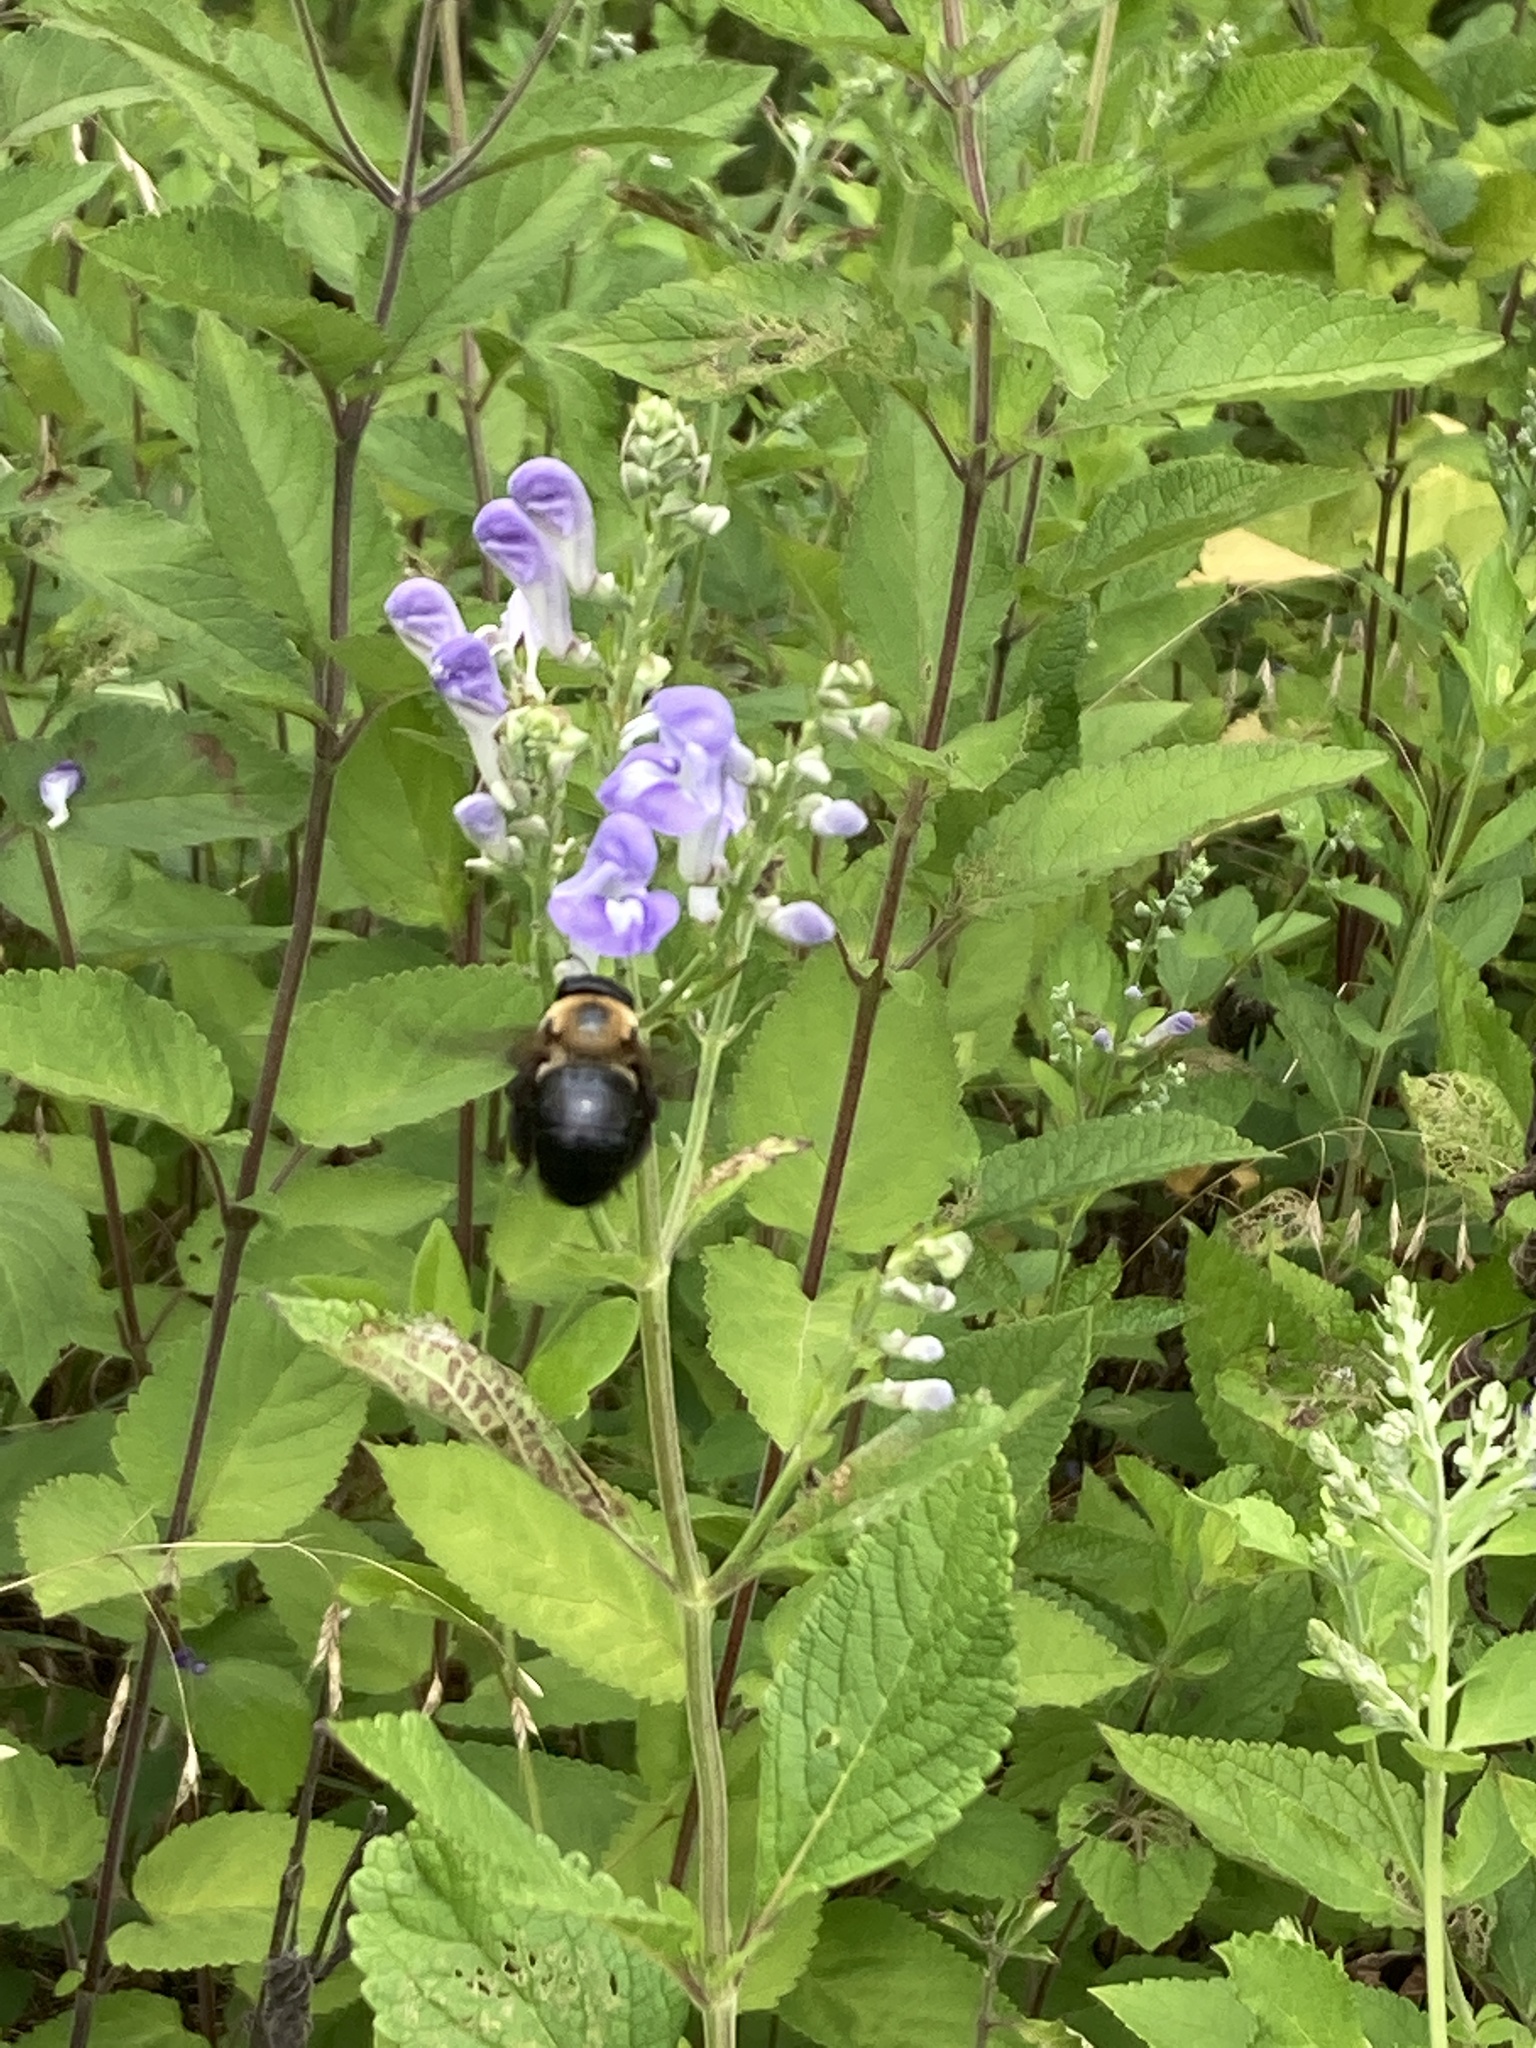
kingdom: Animalia
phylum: Arthropoda
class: Insecta
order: Hymenoptera
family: Apidae
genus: Xylocopa
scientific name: Xylocopa virginica
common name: Carpenter bee
